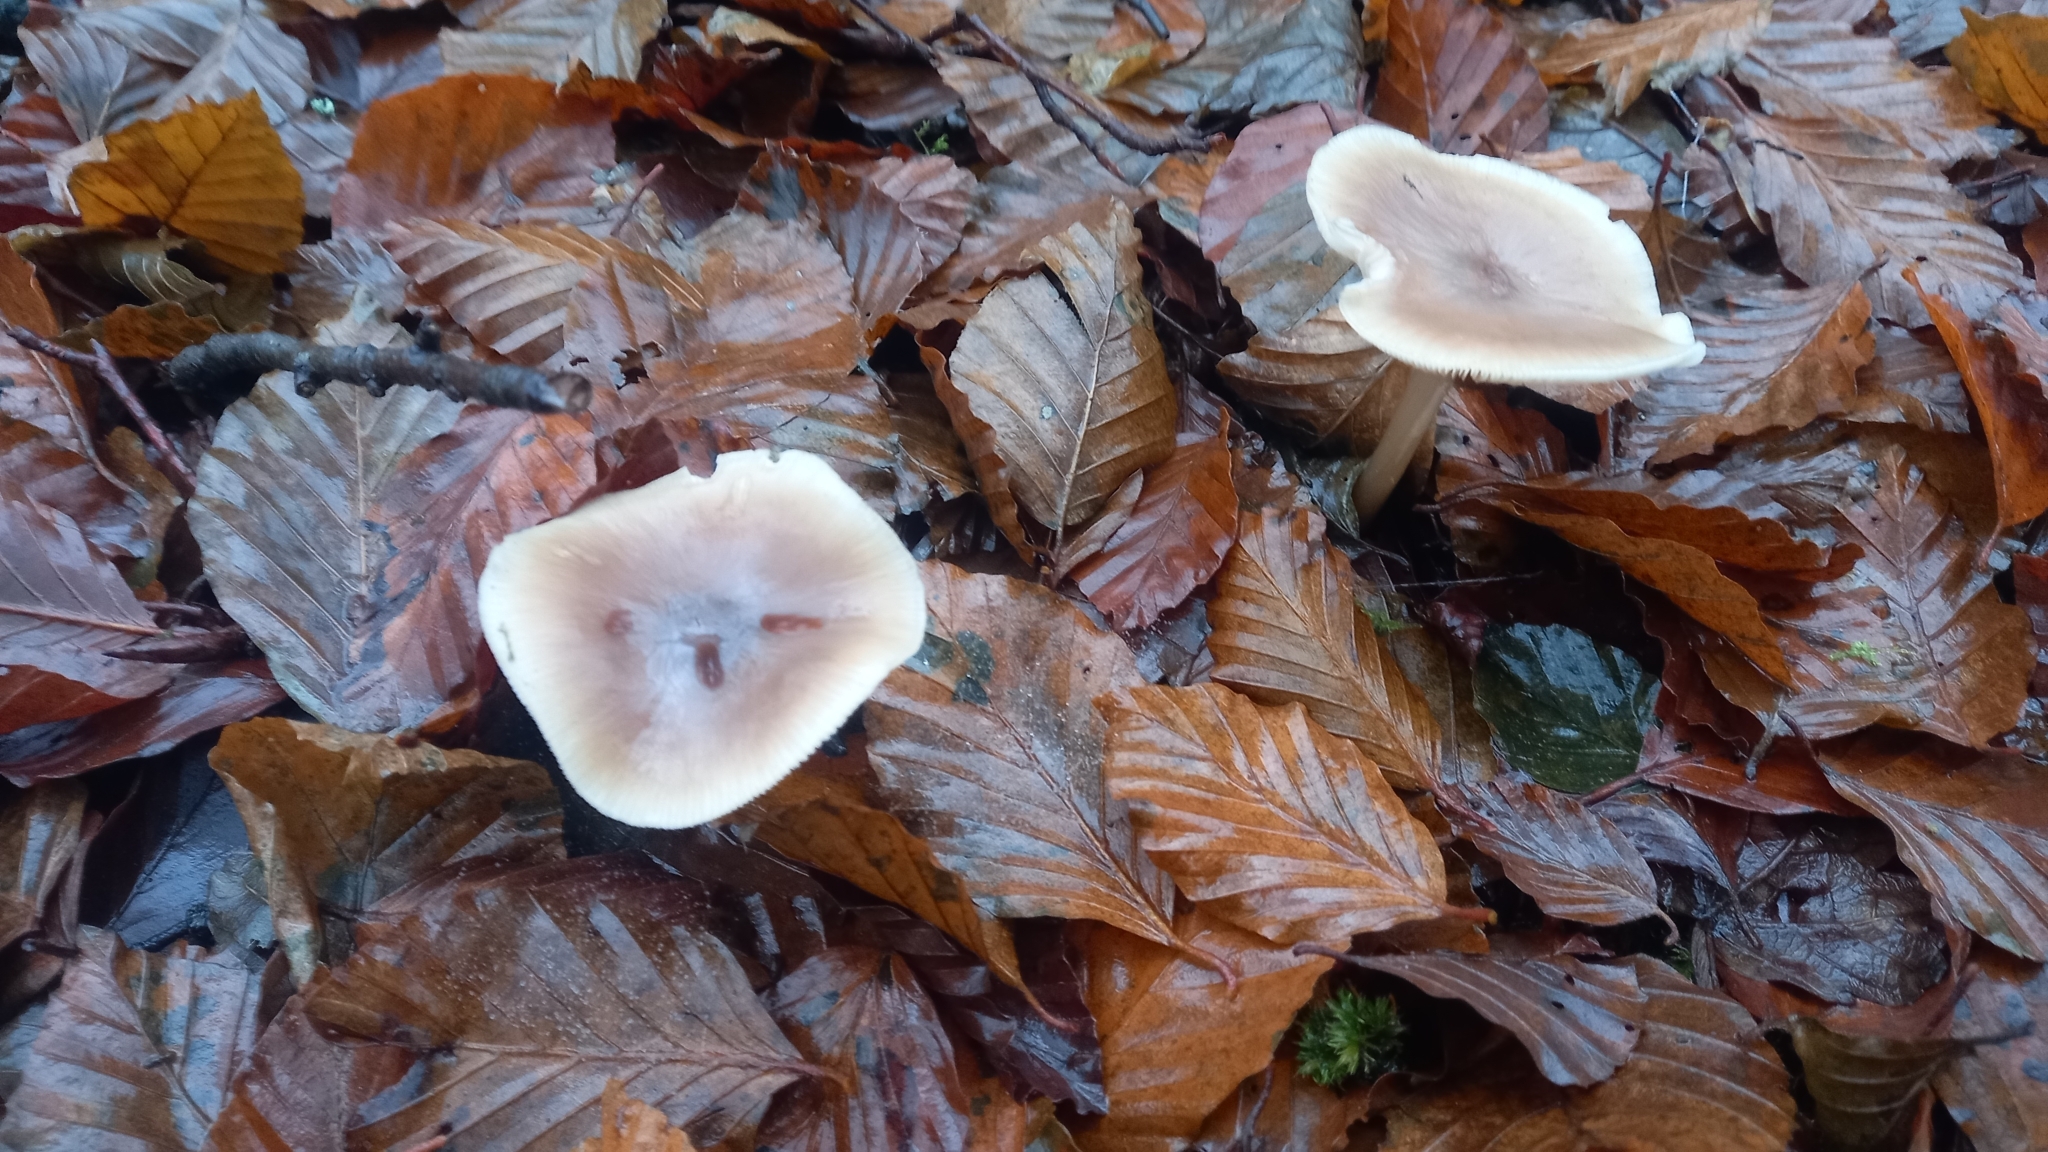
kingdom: Fungi
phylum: Basidiomycota
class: Agaricomycetes
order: Agaricales
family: Omphalotaceae
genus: Rhodocollybia
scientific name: Rhodocollybia butyracea
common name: Butter cap
